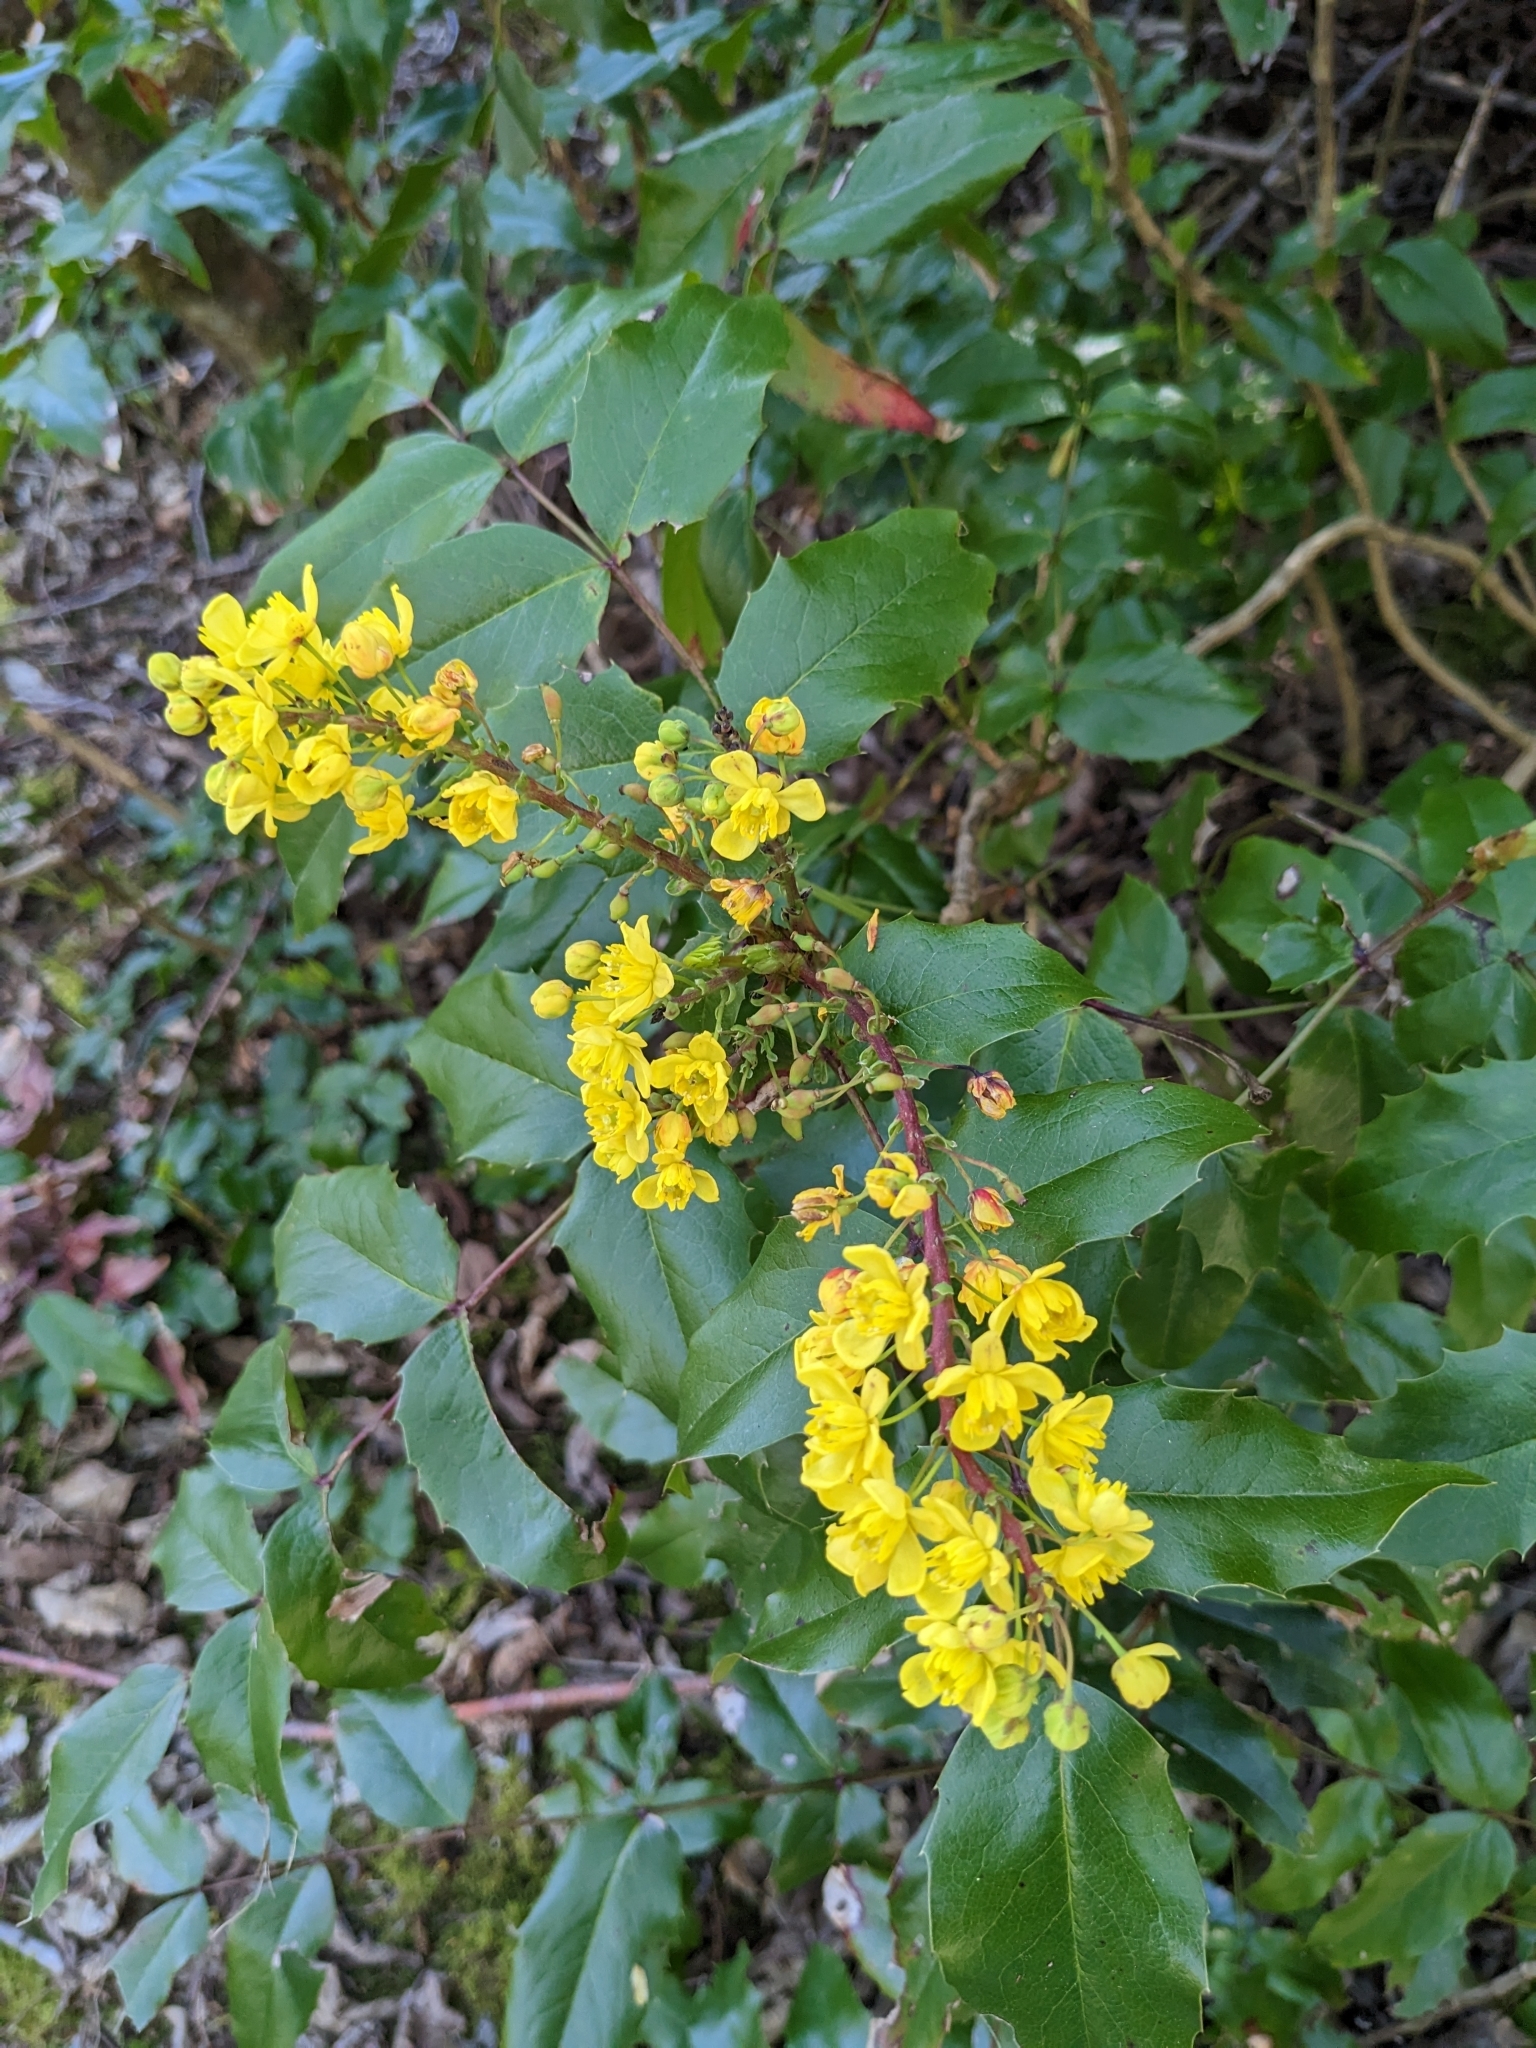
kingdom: Plantae
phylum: Tracheophyta
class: Magnoliopsida
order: Ranunculales
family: Berberidaceae
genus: Mahonia
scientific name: Mahonia aquifolium
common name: Oregon-grape
